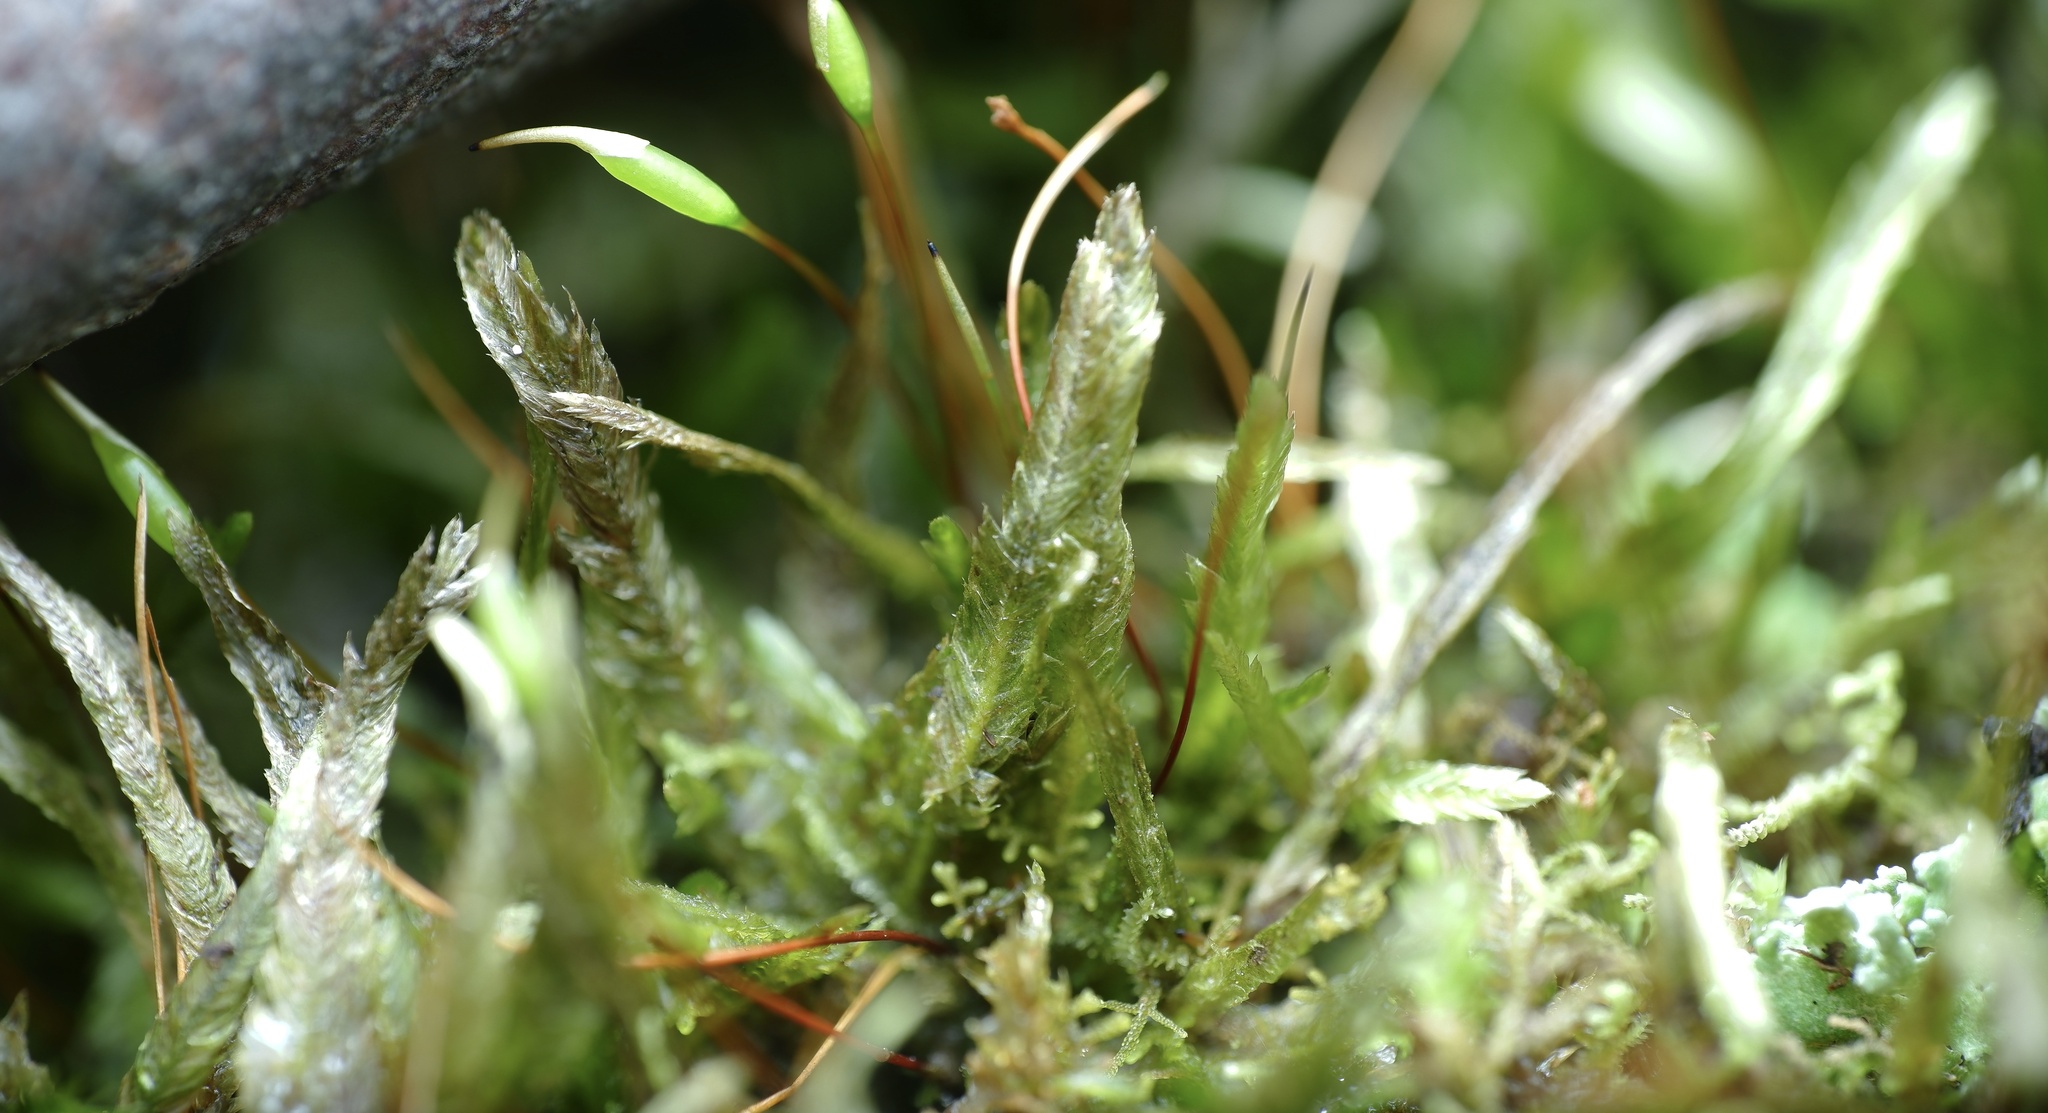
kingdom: Plantae
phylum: Bryophyta
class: Bryopsida
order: Hypnales
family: Catagoniaceae
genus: Catagonium
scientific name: Catagonium nitens
